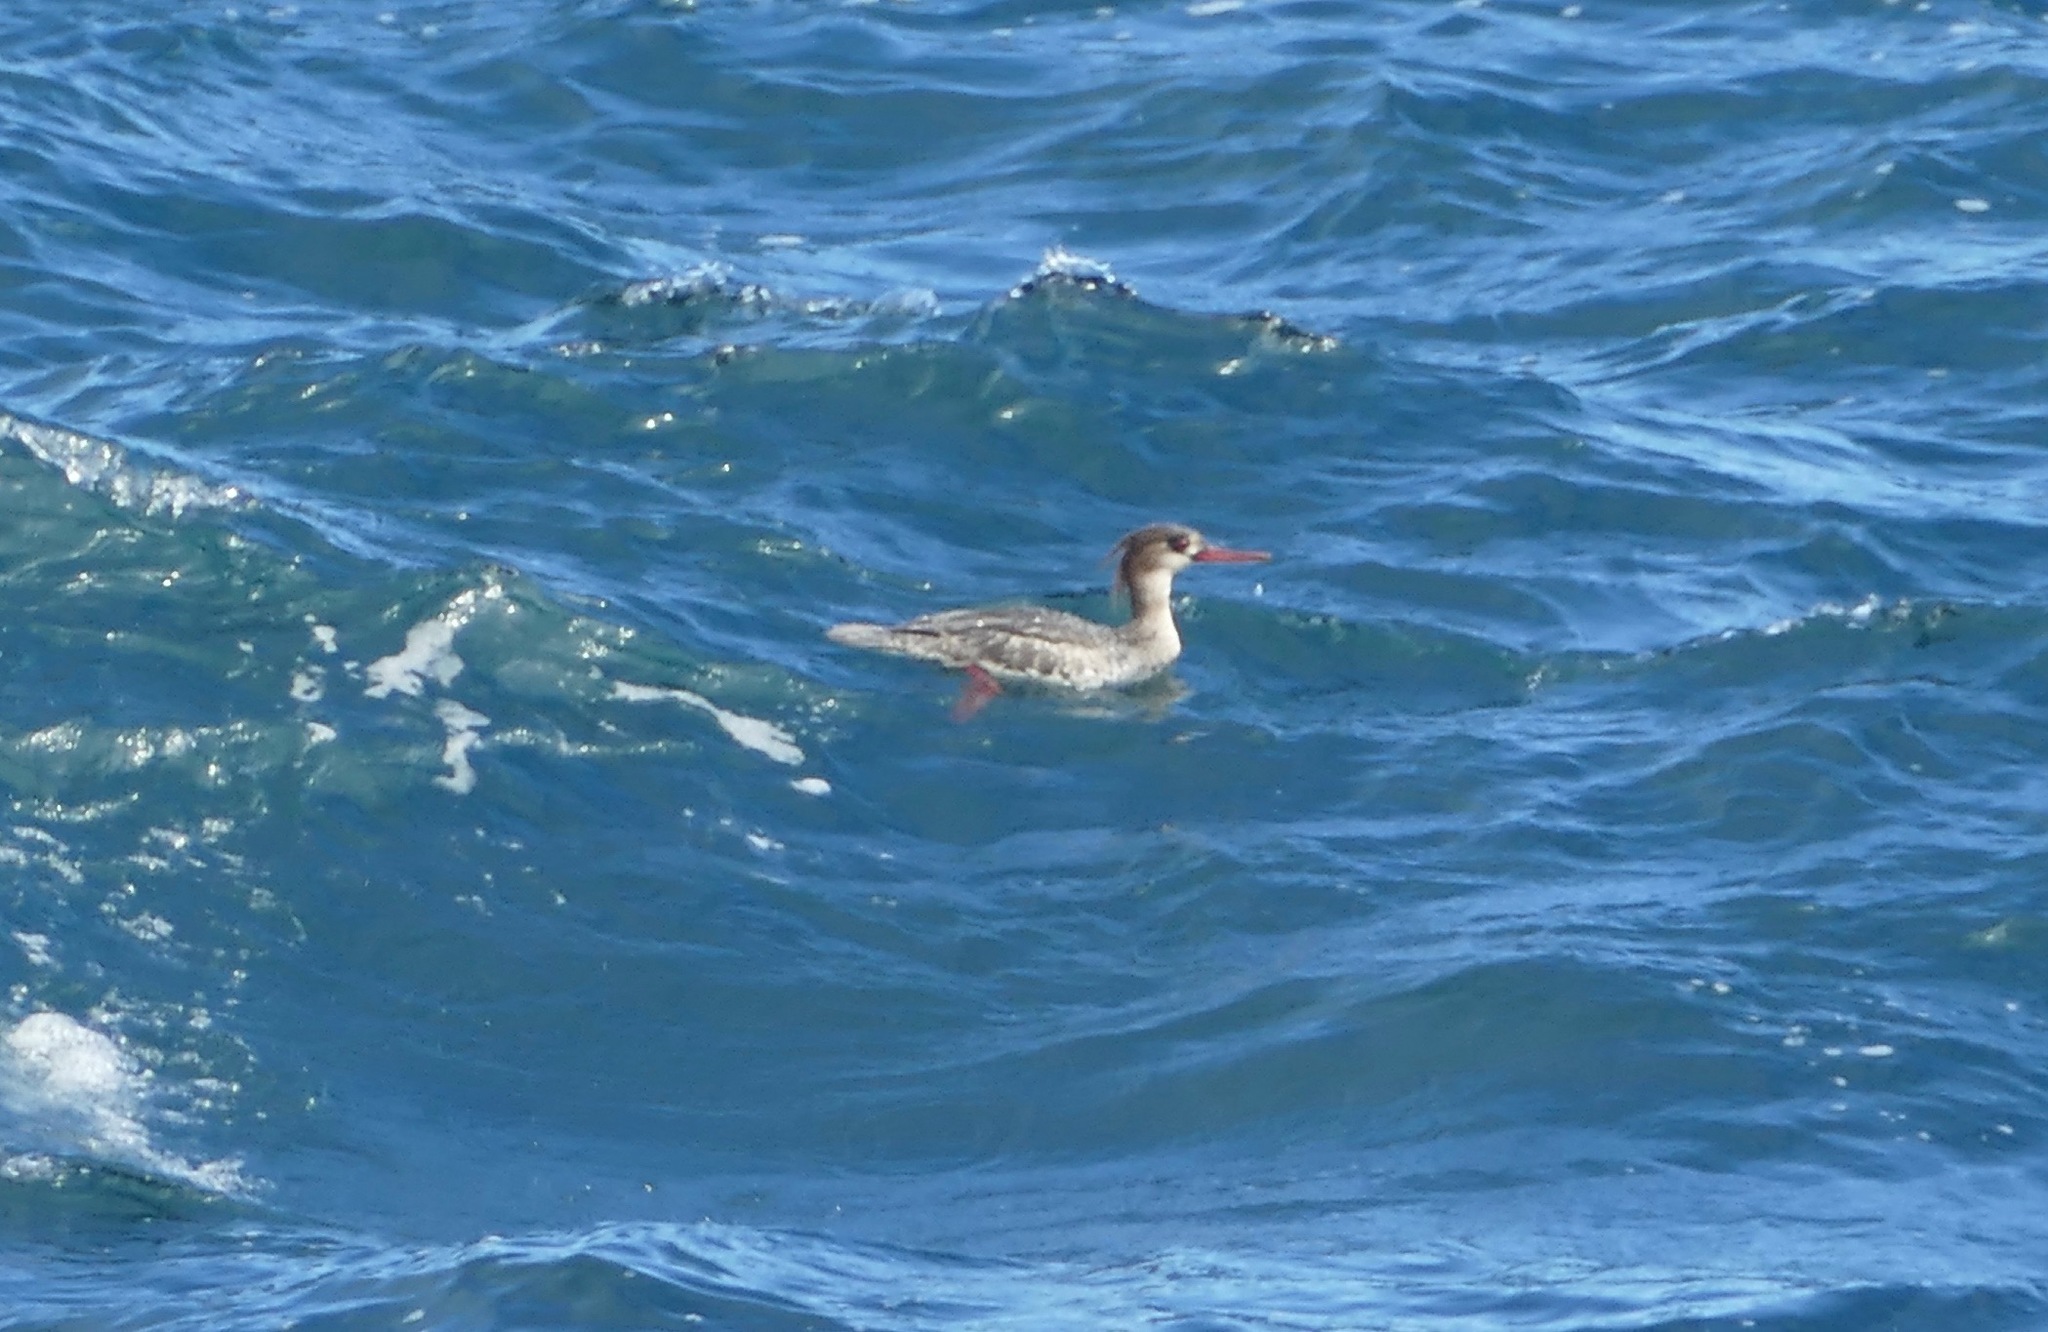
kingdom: Animalia
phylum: Chordata
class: Aves
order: Anseriformes
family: Anatidae
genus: Mergus
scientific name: Mergus serrator
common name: Red-breasted merganser
